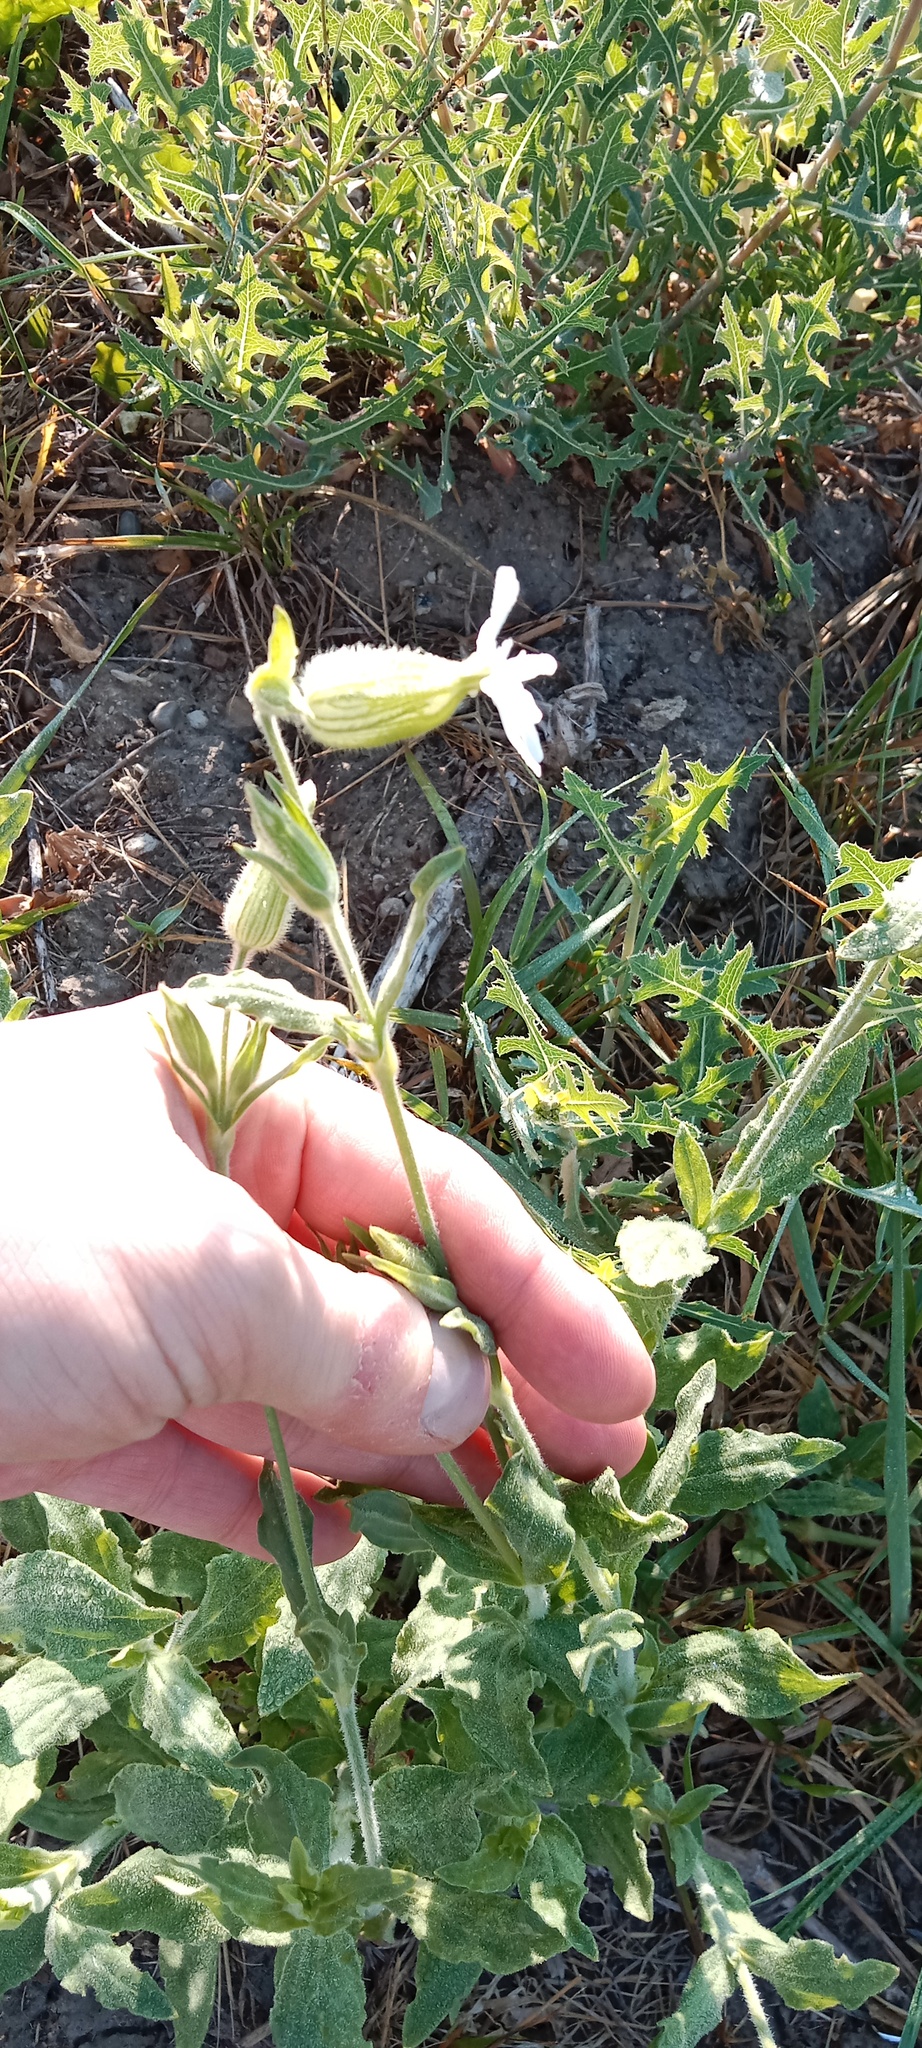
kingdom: Plantae
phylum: Tracheophyta
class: Magnoliopsida
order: Caryophyllales
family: Caryophyllaceae
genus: Silene
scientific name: Silene latifolia
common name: White campion
